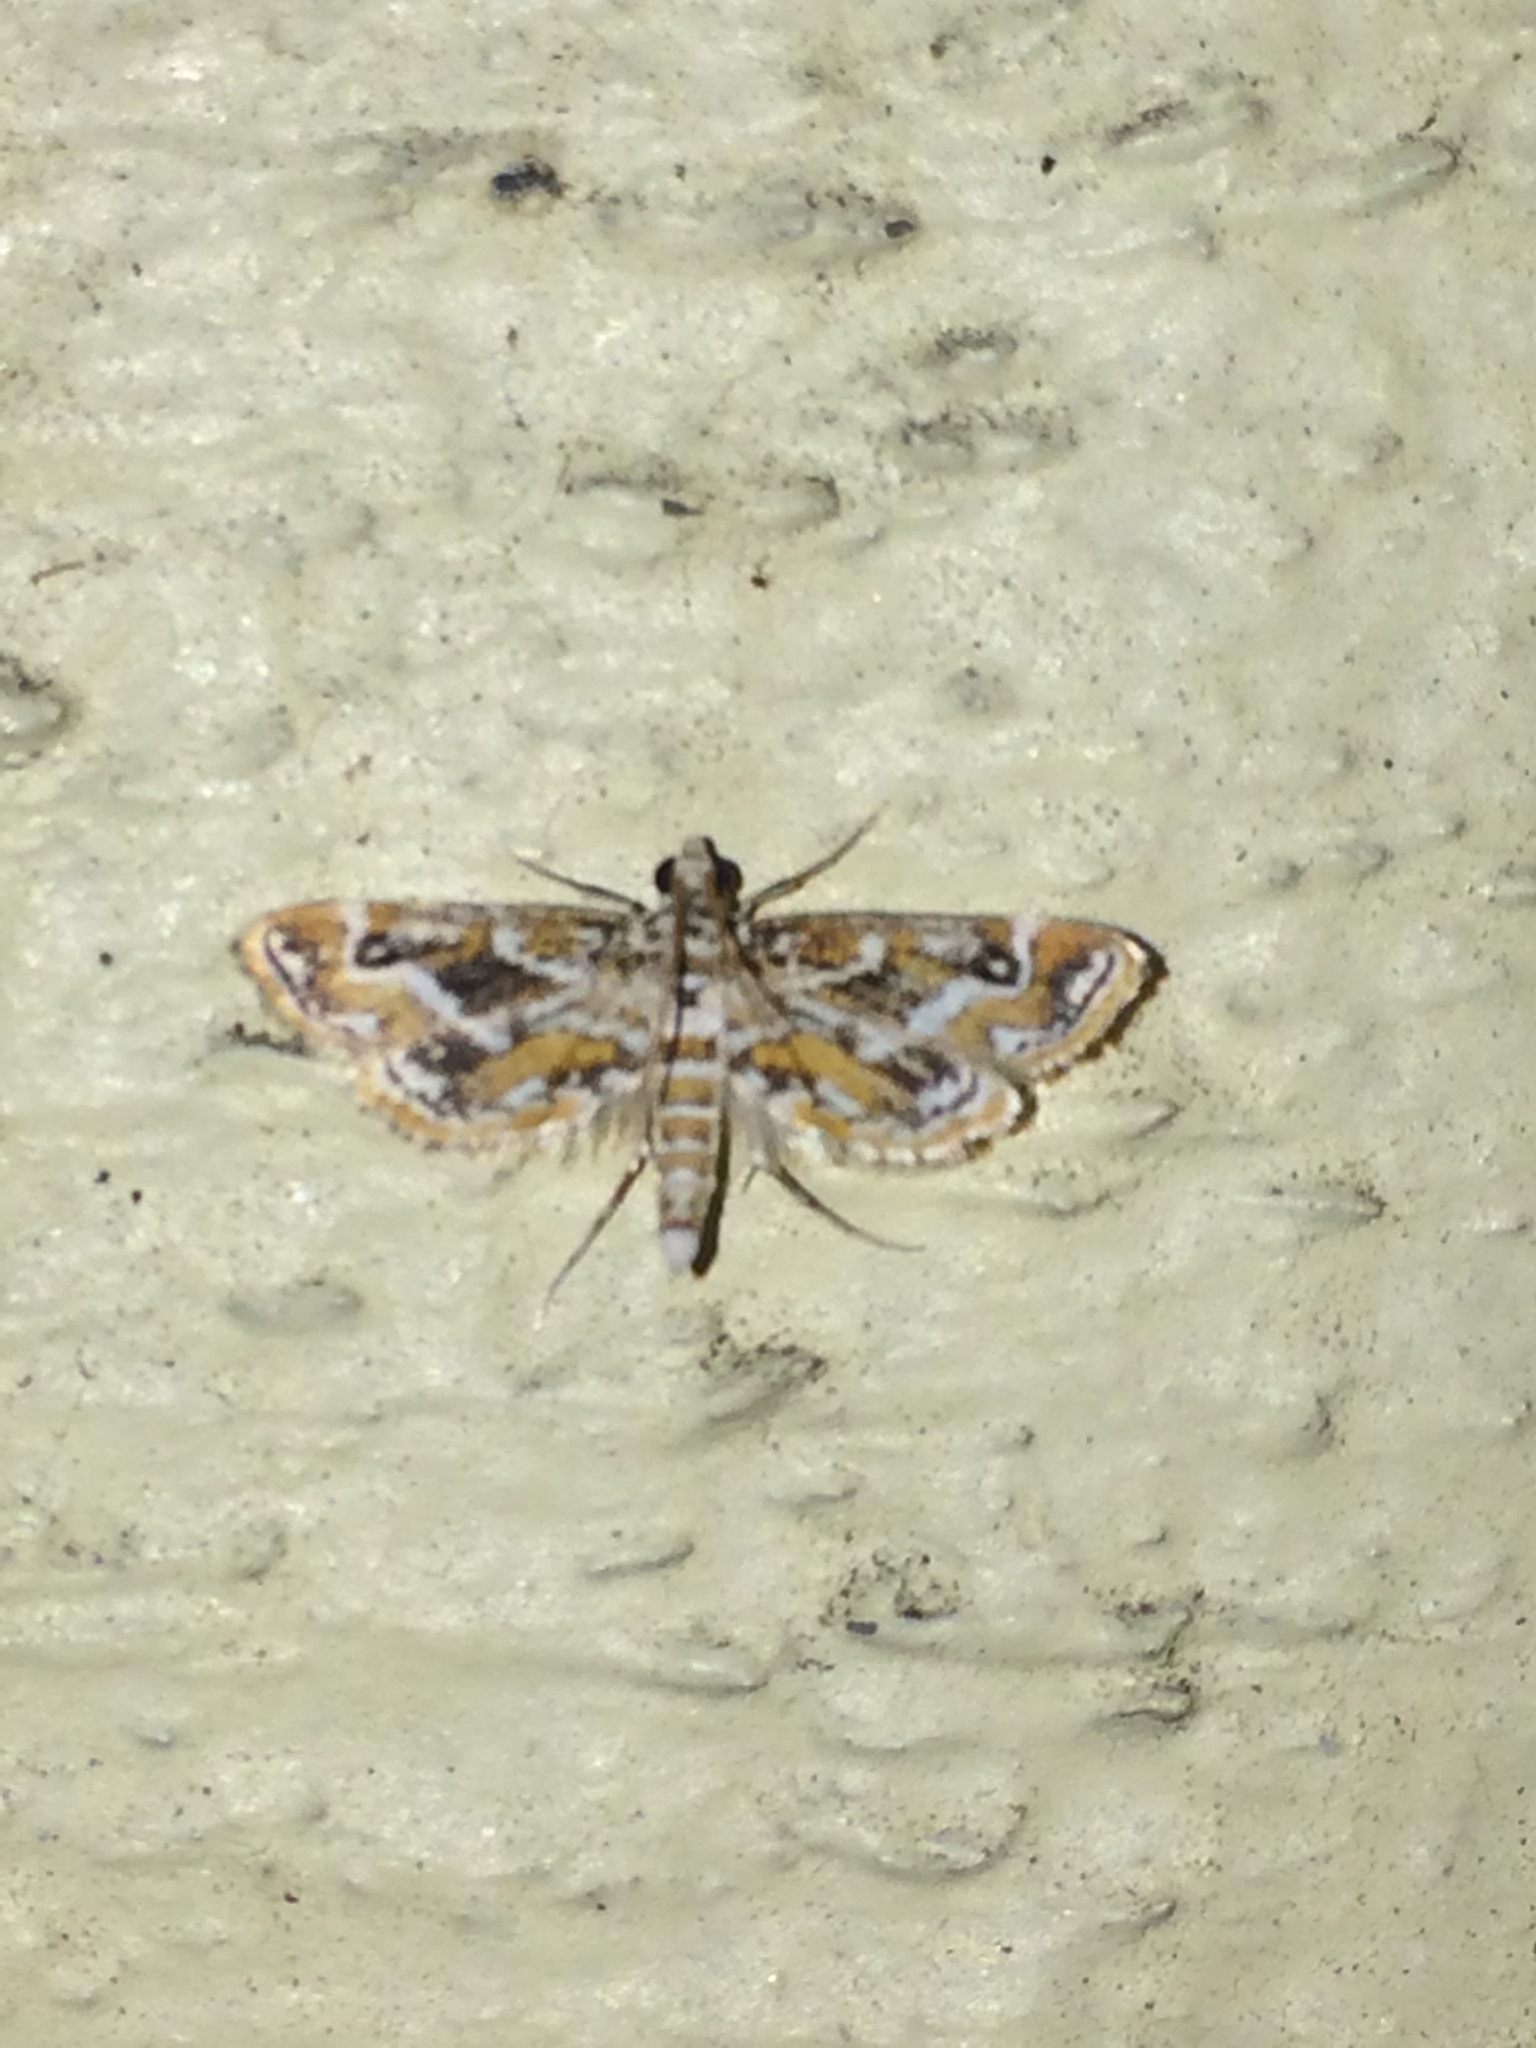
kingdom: Animalia
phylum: Arthropoda
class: Insecta
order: Lepidoptera
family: Crambidae
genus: Parapoynx
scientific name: Parapoynx diminutalis
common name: Hydrilla leafcutter
